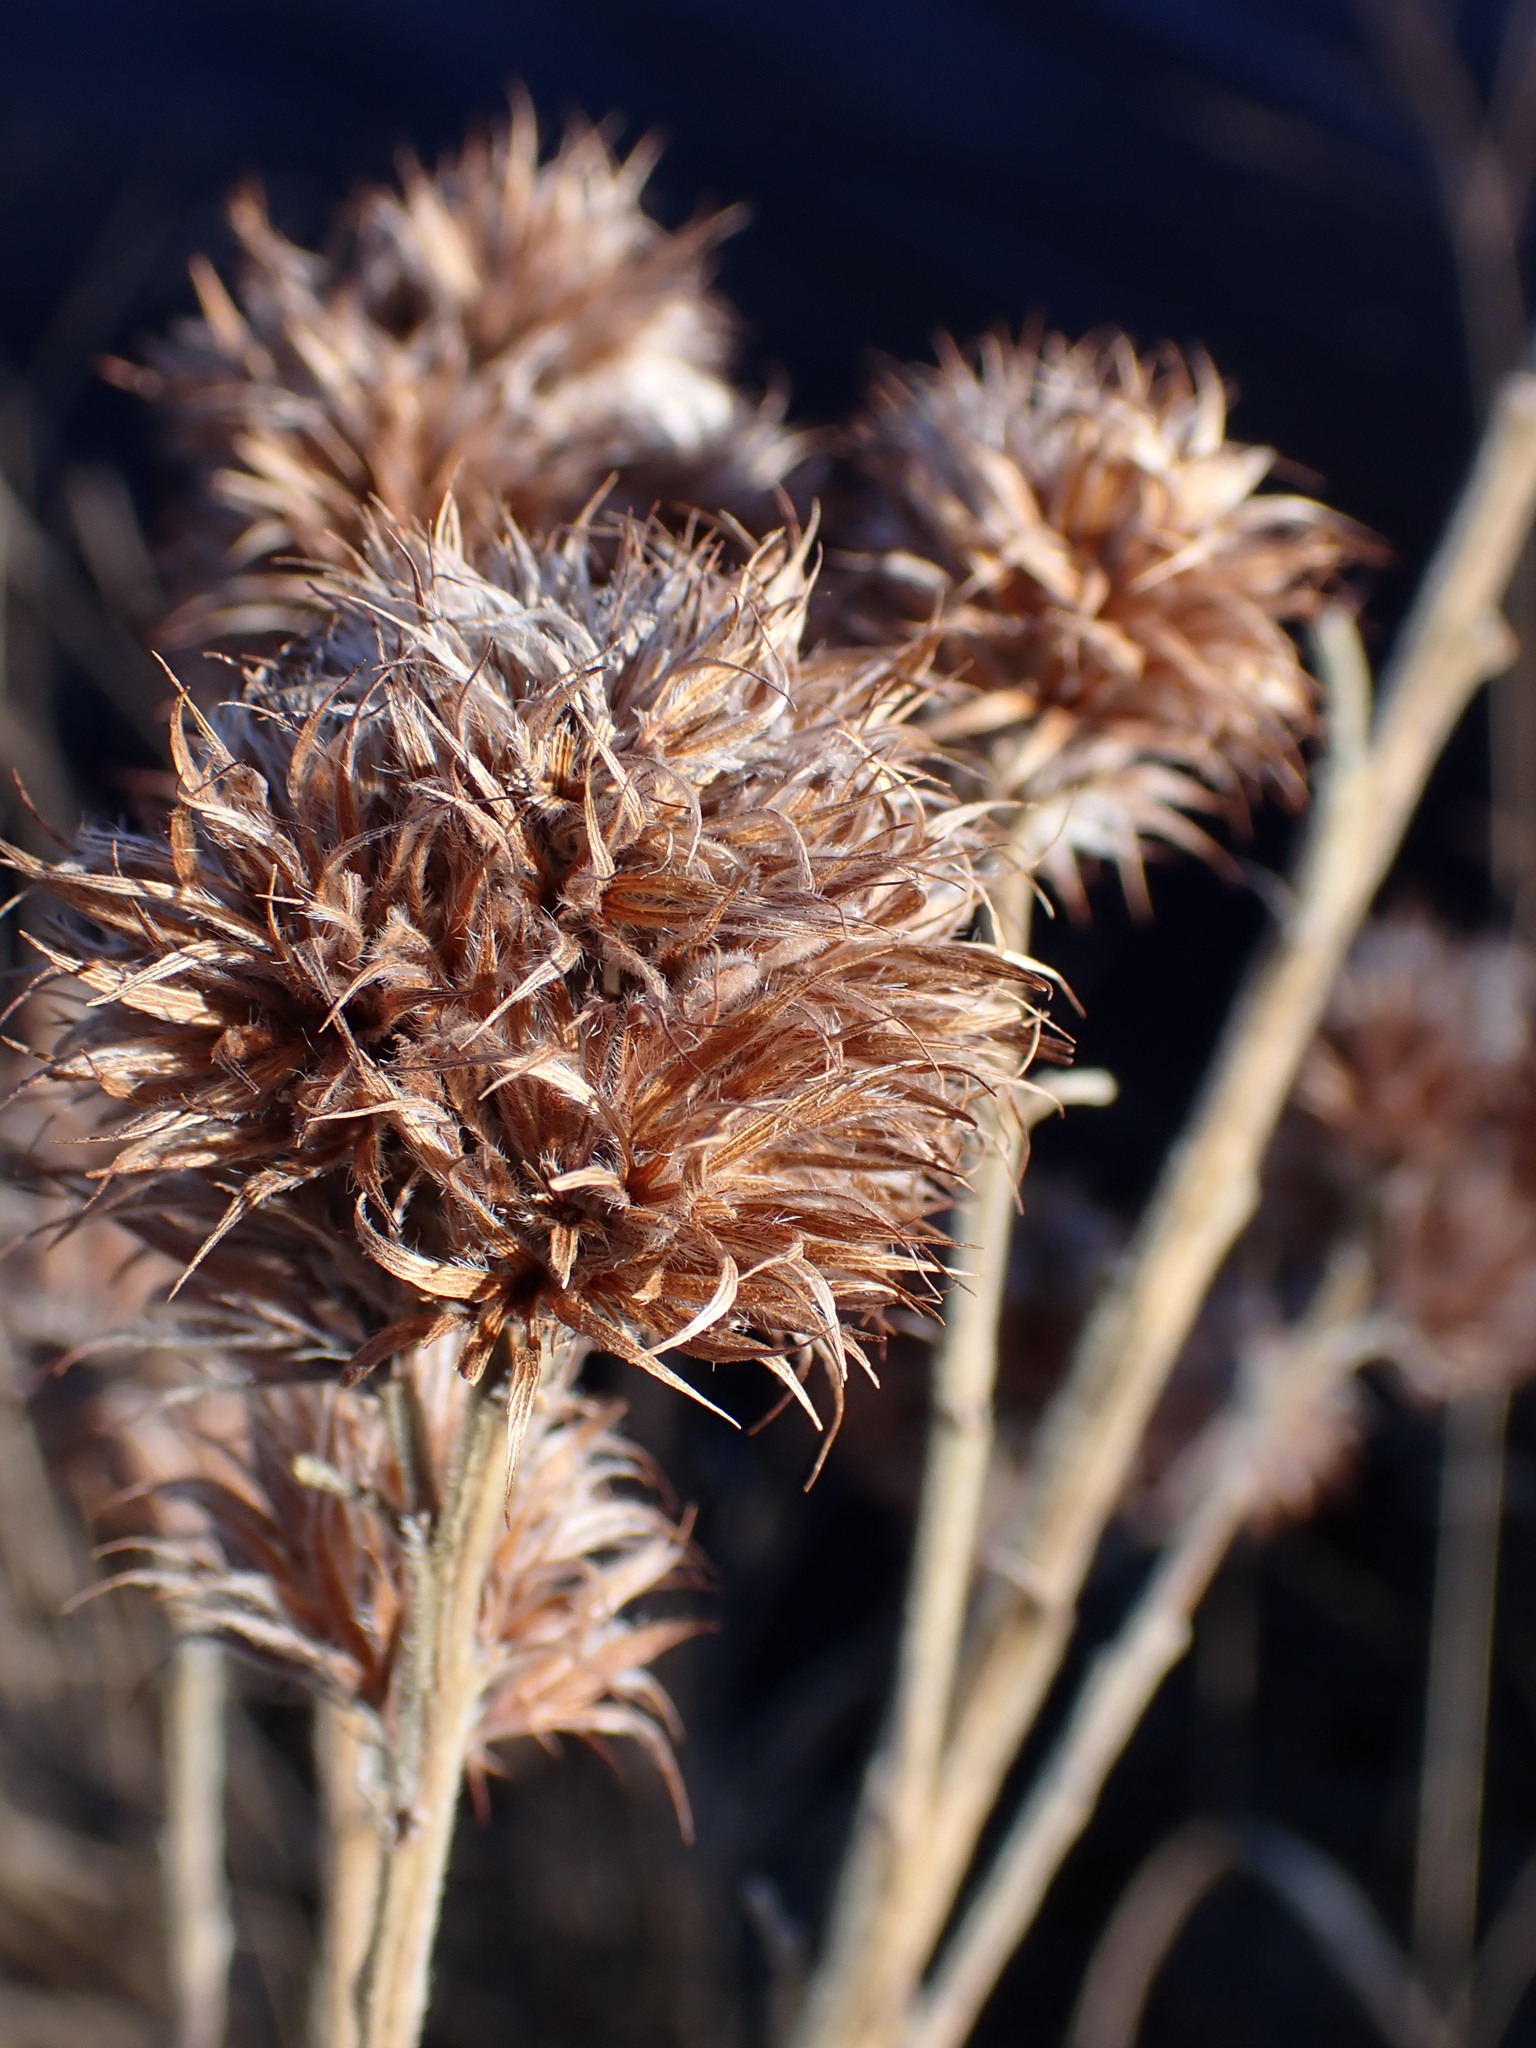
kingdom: Plantae
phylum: Tracheophyta
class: Magnoliopsida
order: Fabales
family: Fabaceae
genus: Lespedeza
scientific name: Lespedeza capitata
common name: Dusty clover
